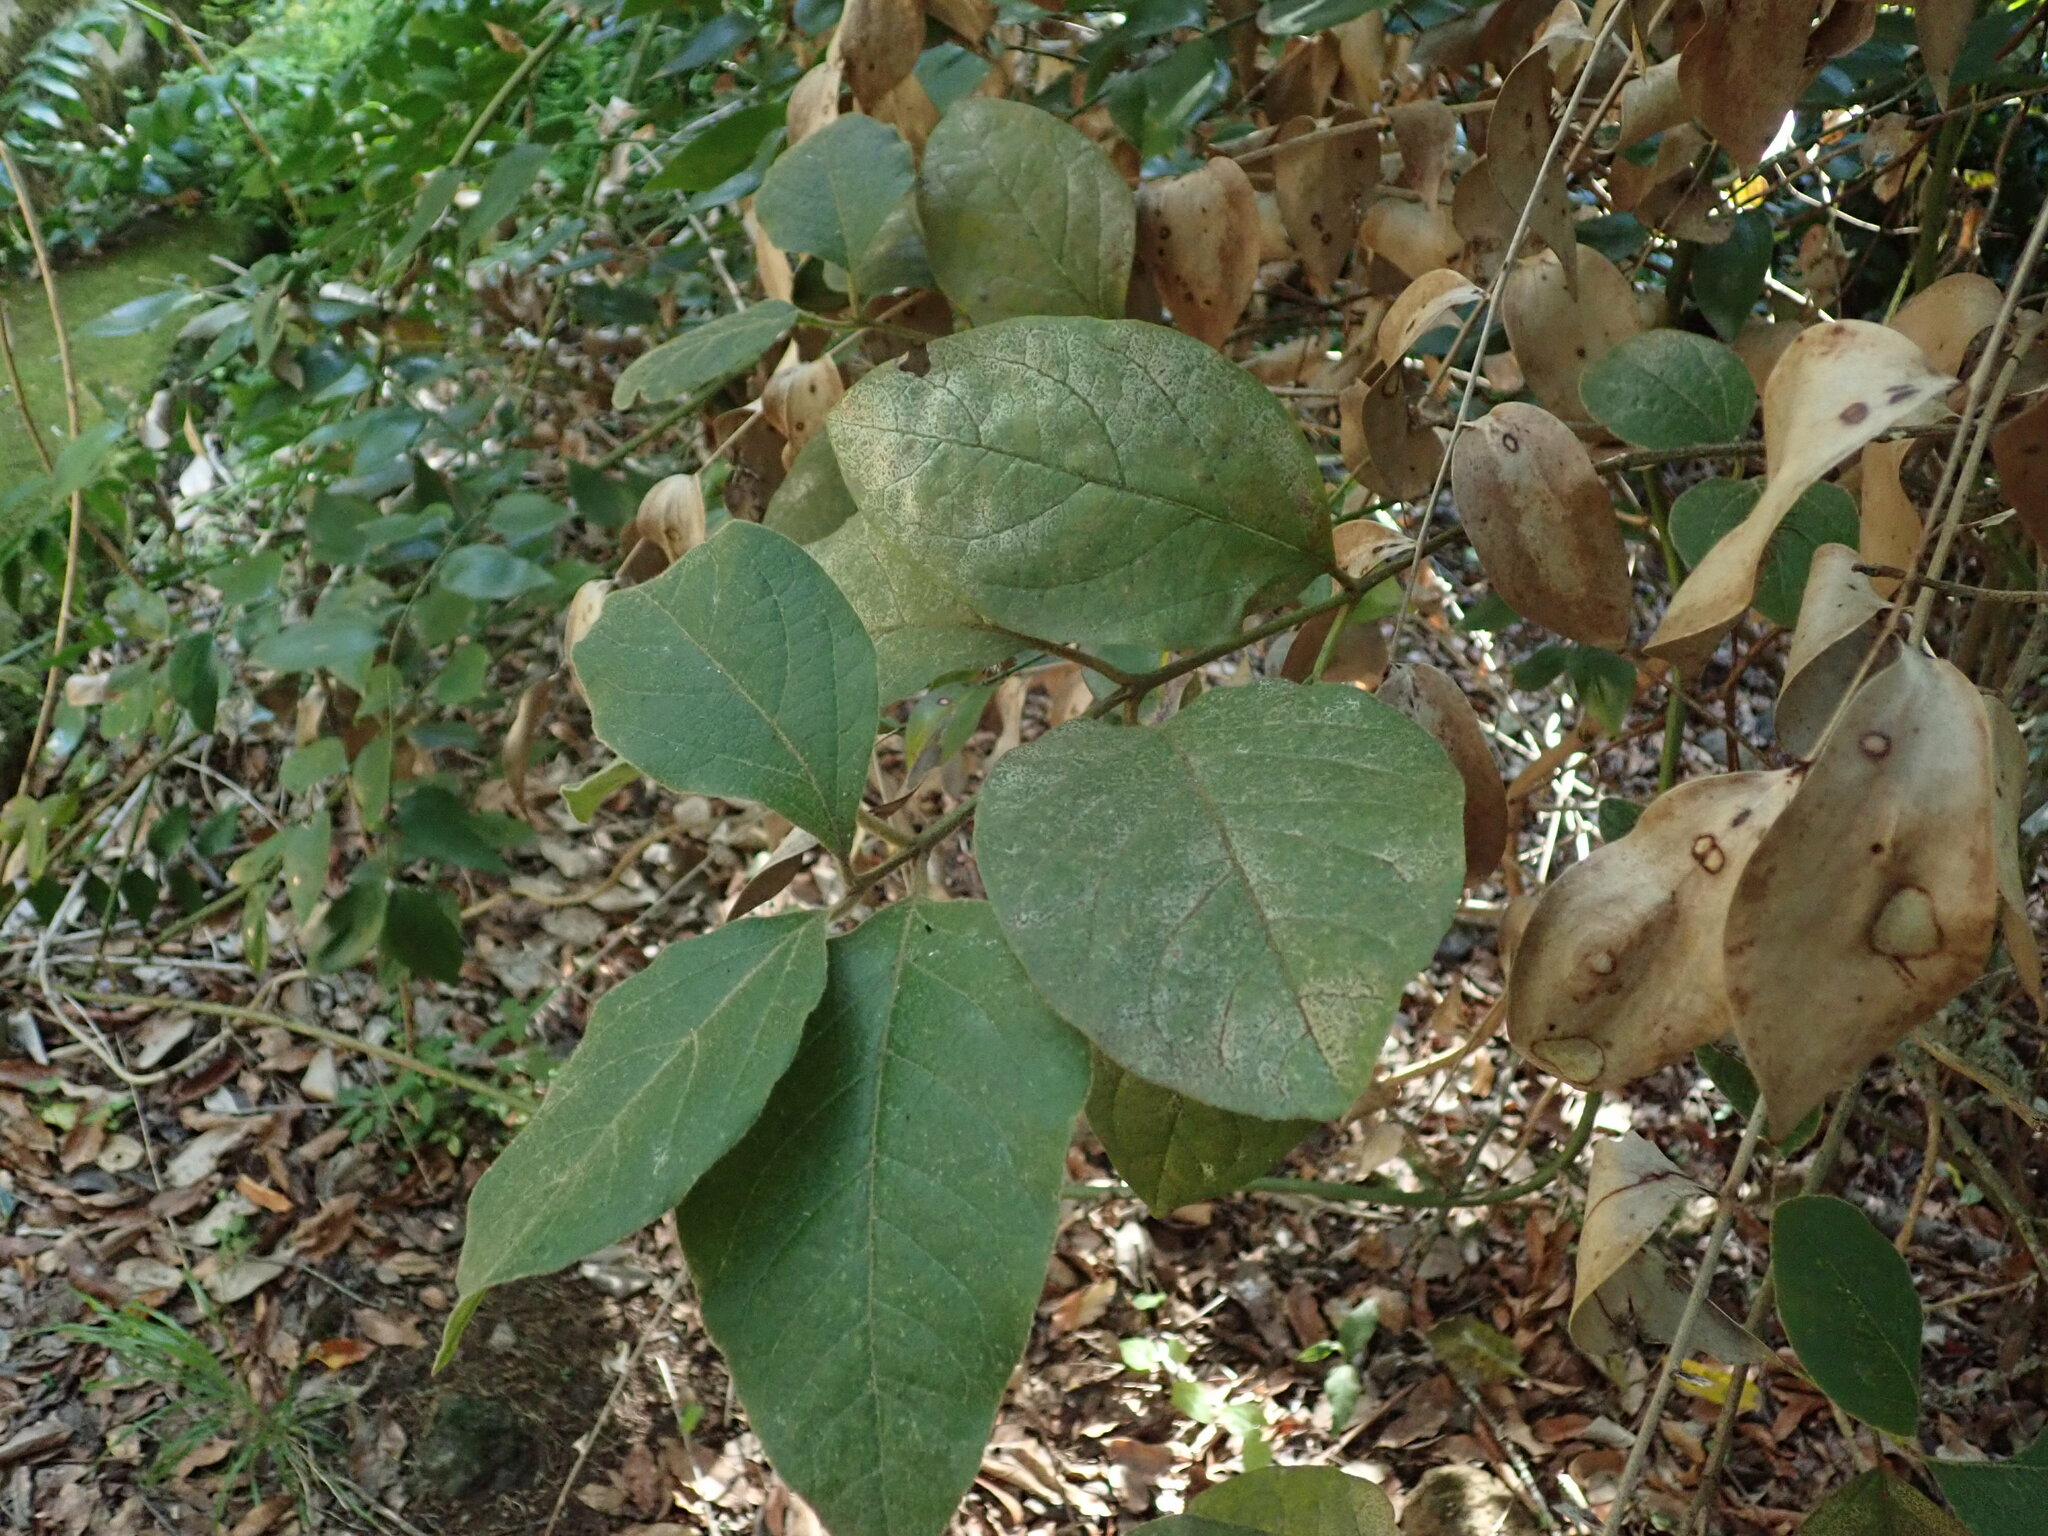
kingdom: Plantae
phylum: Tracheophyta
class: Magnoliopsida
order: Dipsacales
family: Viburnaceae
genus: Viburnum
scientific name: Viburnum rugosum
